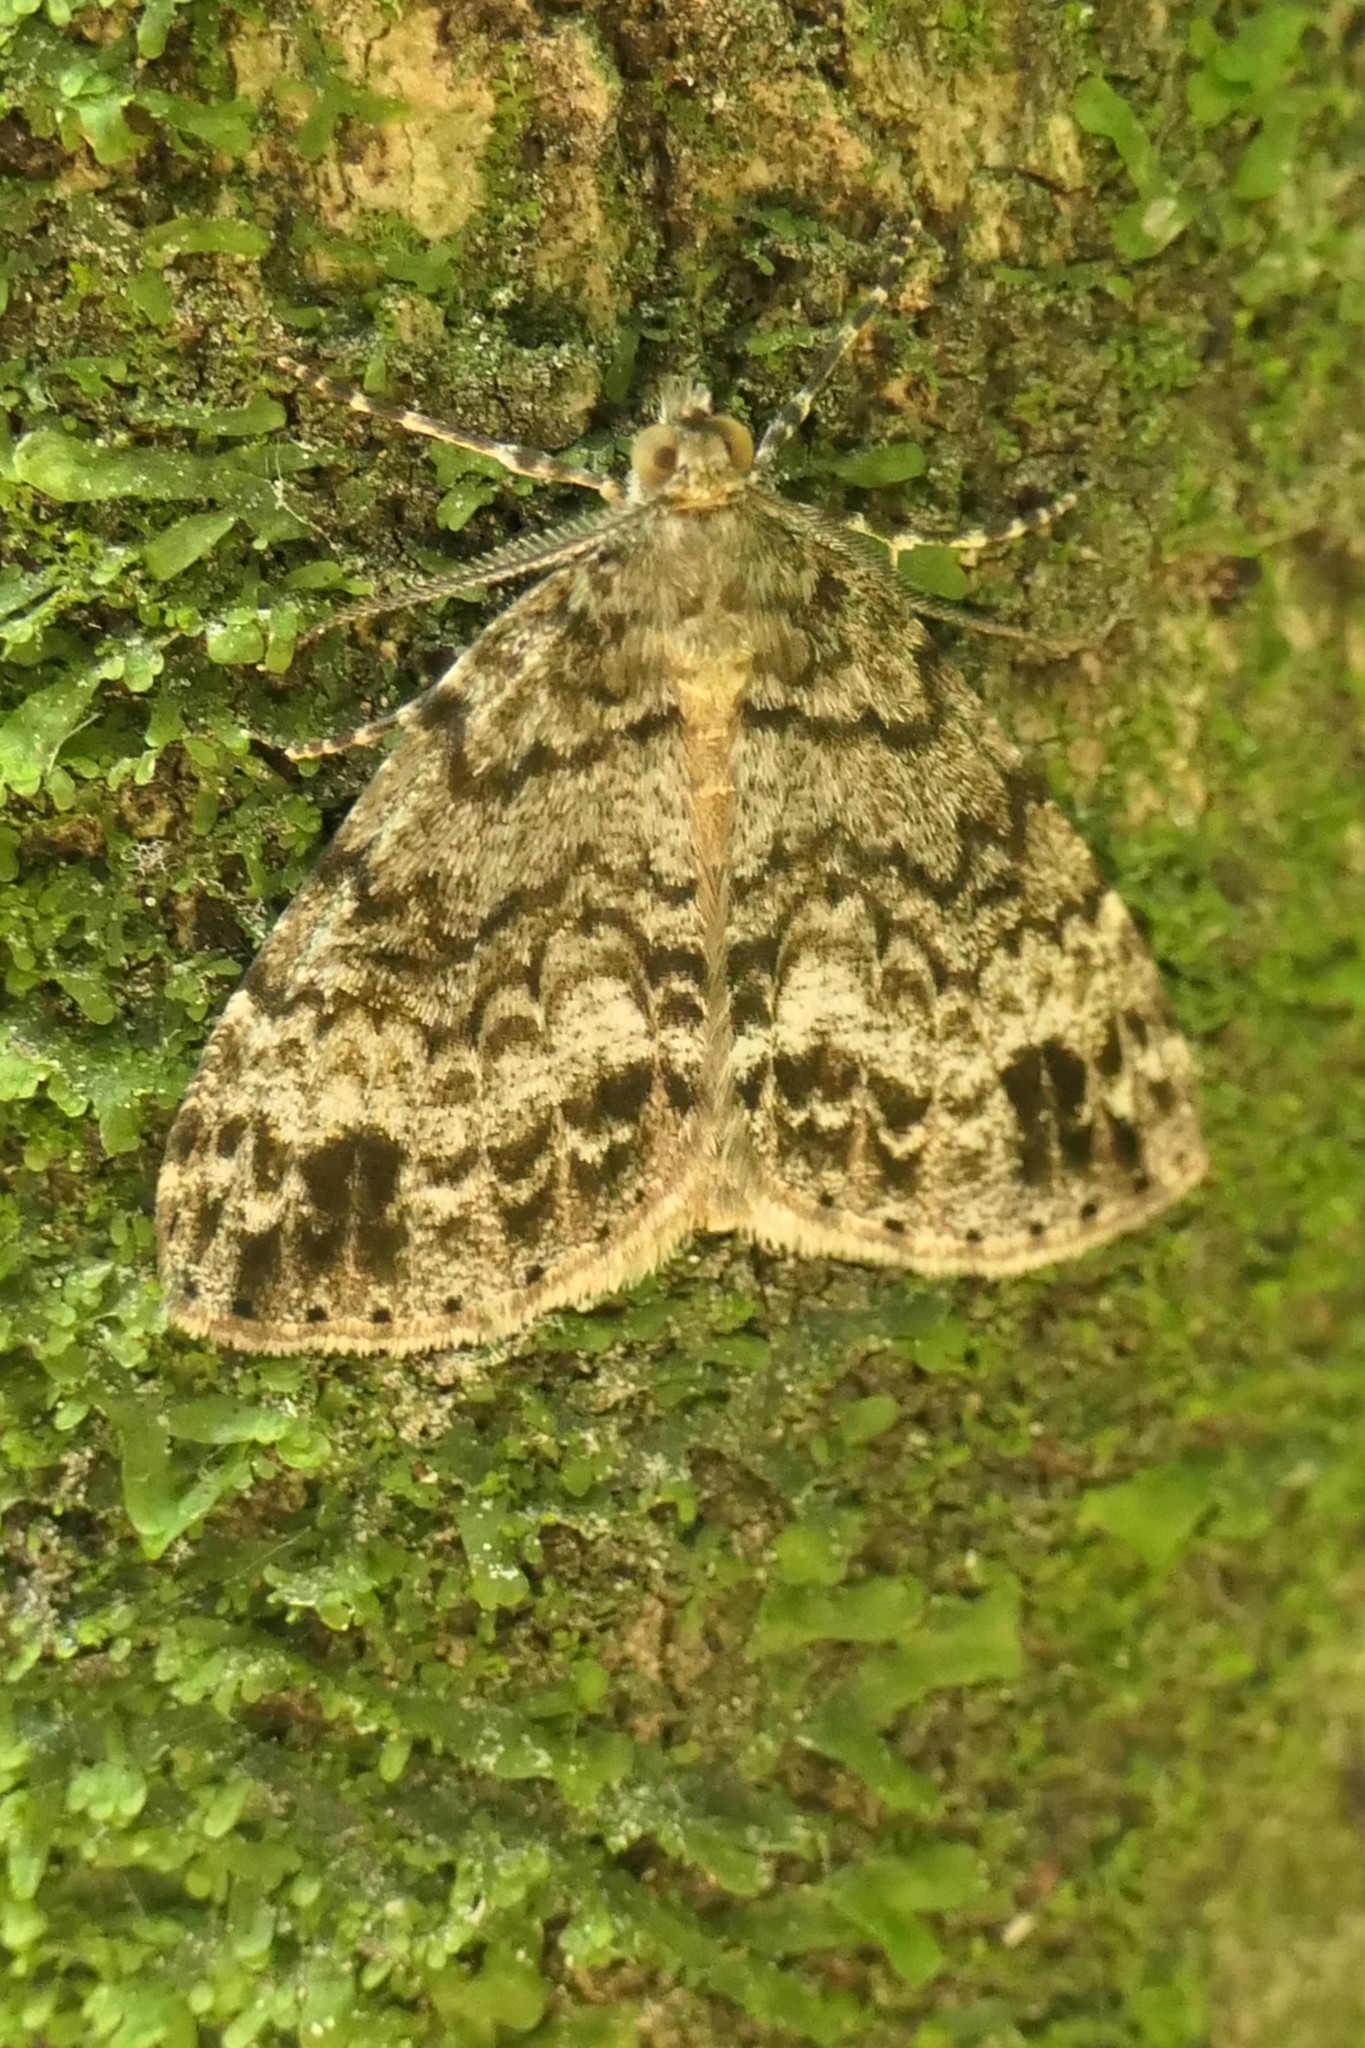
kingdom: Animalia
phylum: Arthropoda
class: Insecta
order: Lepidoptera
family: Geometridae
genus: Pseudocoremia
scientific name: Pseudocoremia indistincta
